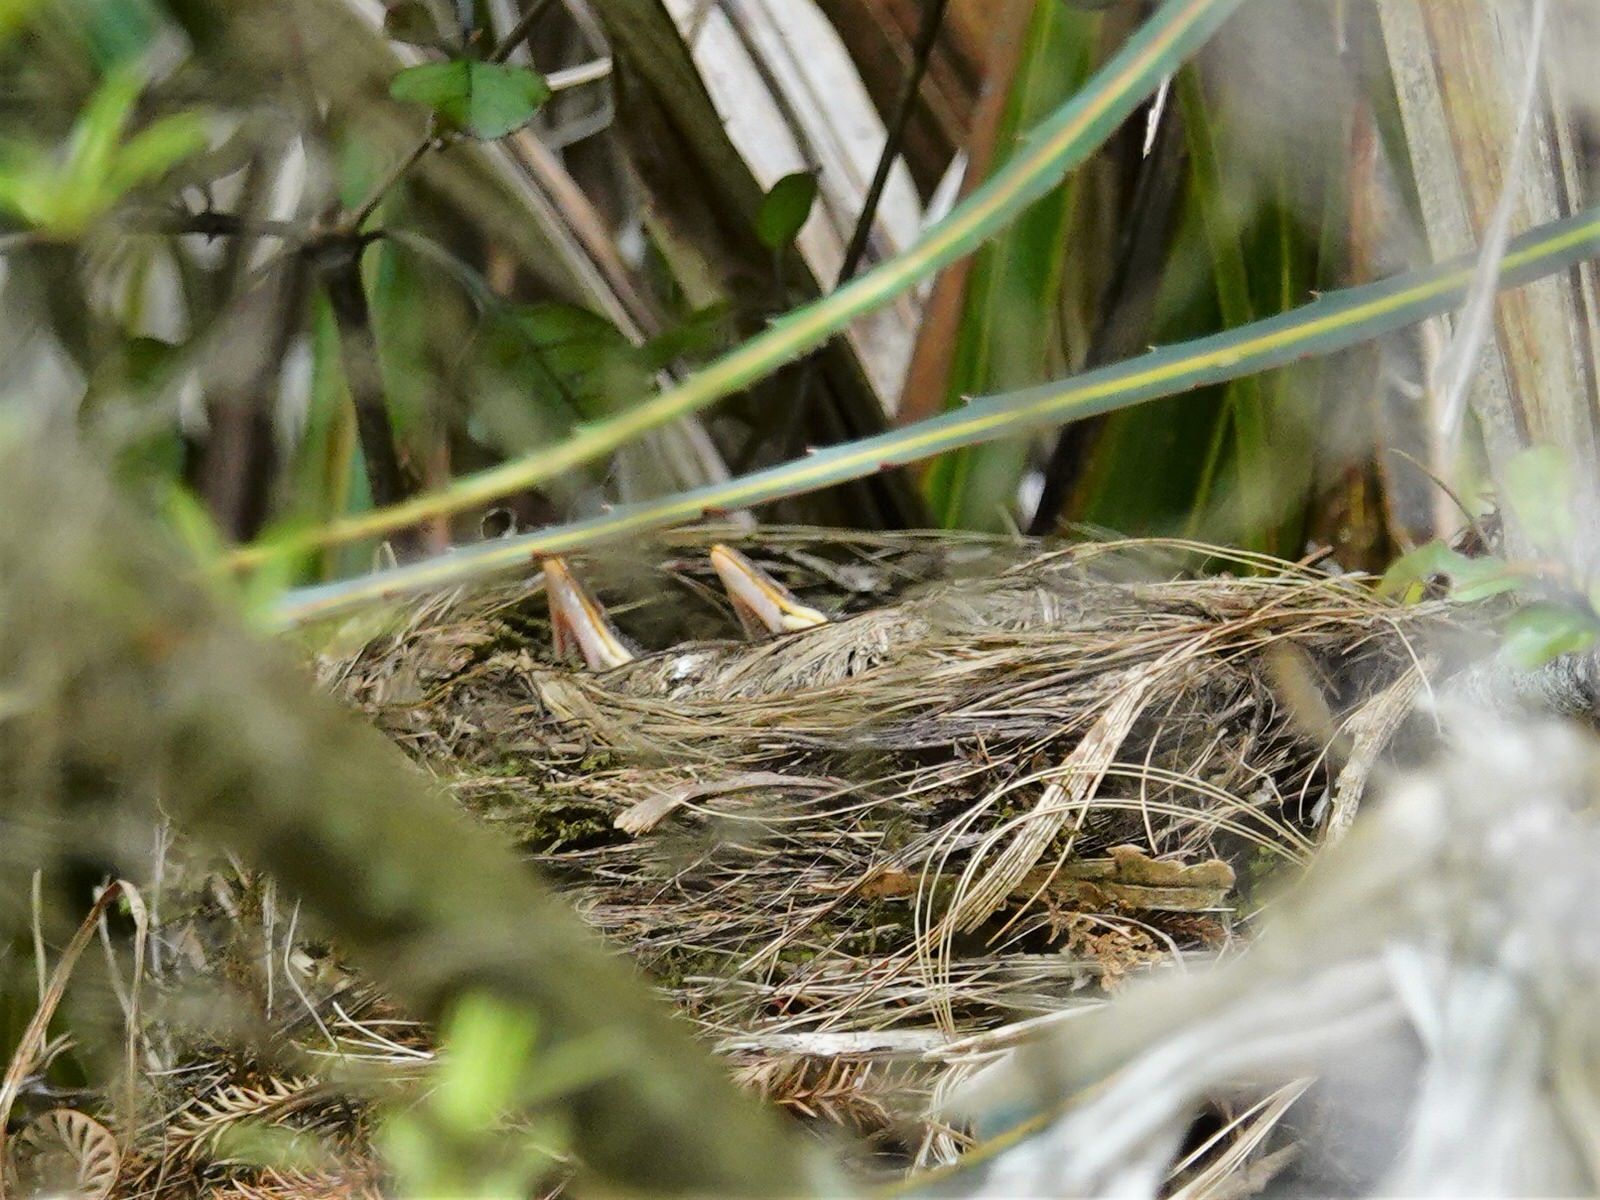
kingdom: Animalia
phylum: Chordata
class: Aves
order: Passeriformes
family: Turdidae
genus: Turdus
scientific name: Turdus merula
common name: Common blackbird
